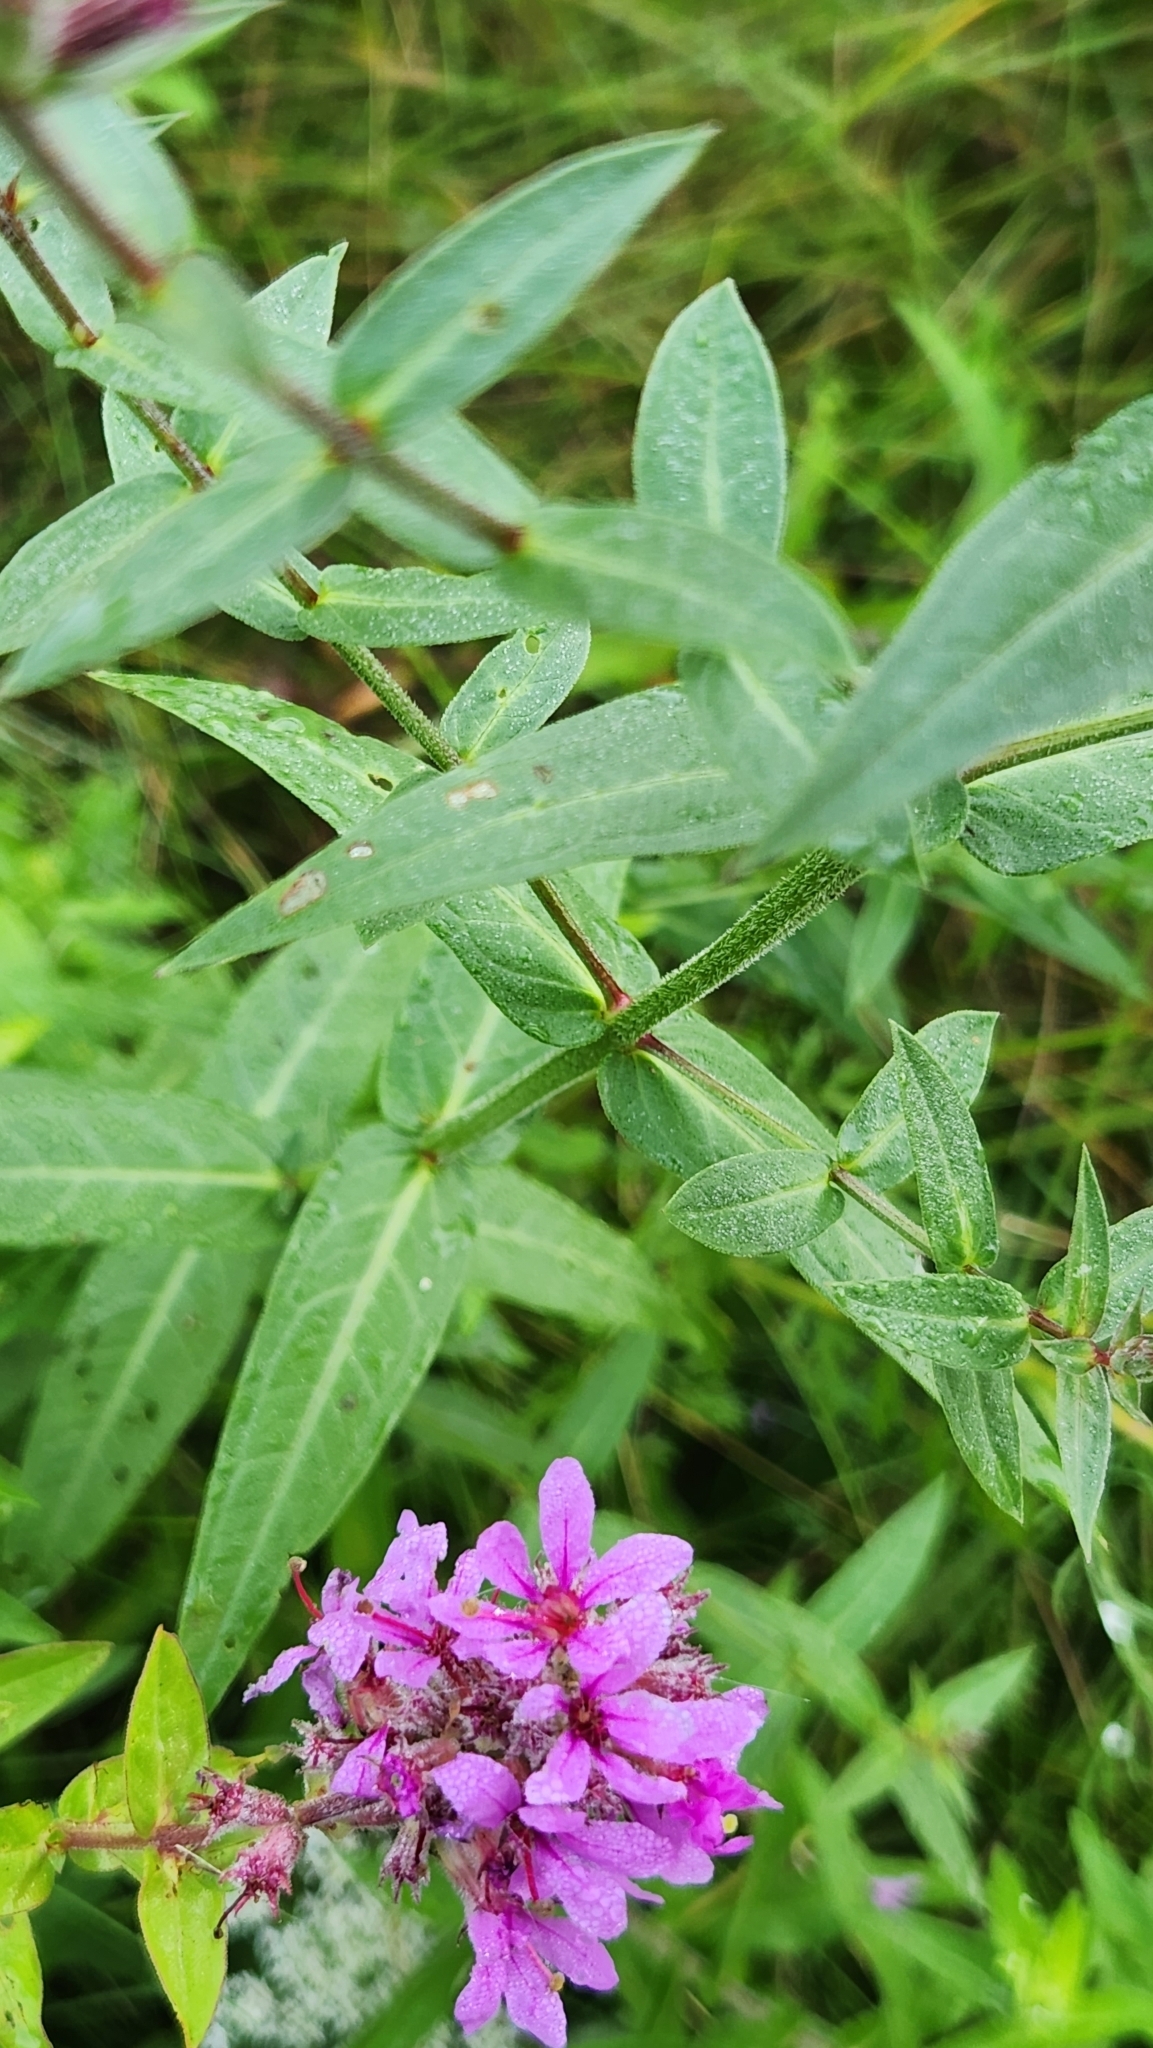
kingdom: Plantae
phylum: Tracheophyta
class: Magnoliopsida
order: Myrtales
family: Lythraceae
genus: Lythrum
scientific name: Lythrum salicaria
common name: Purple loosestrife
